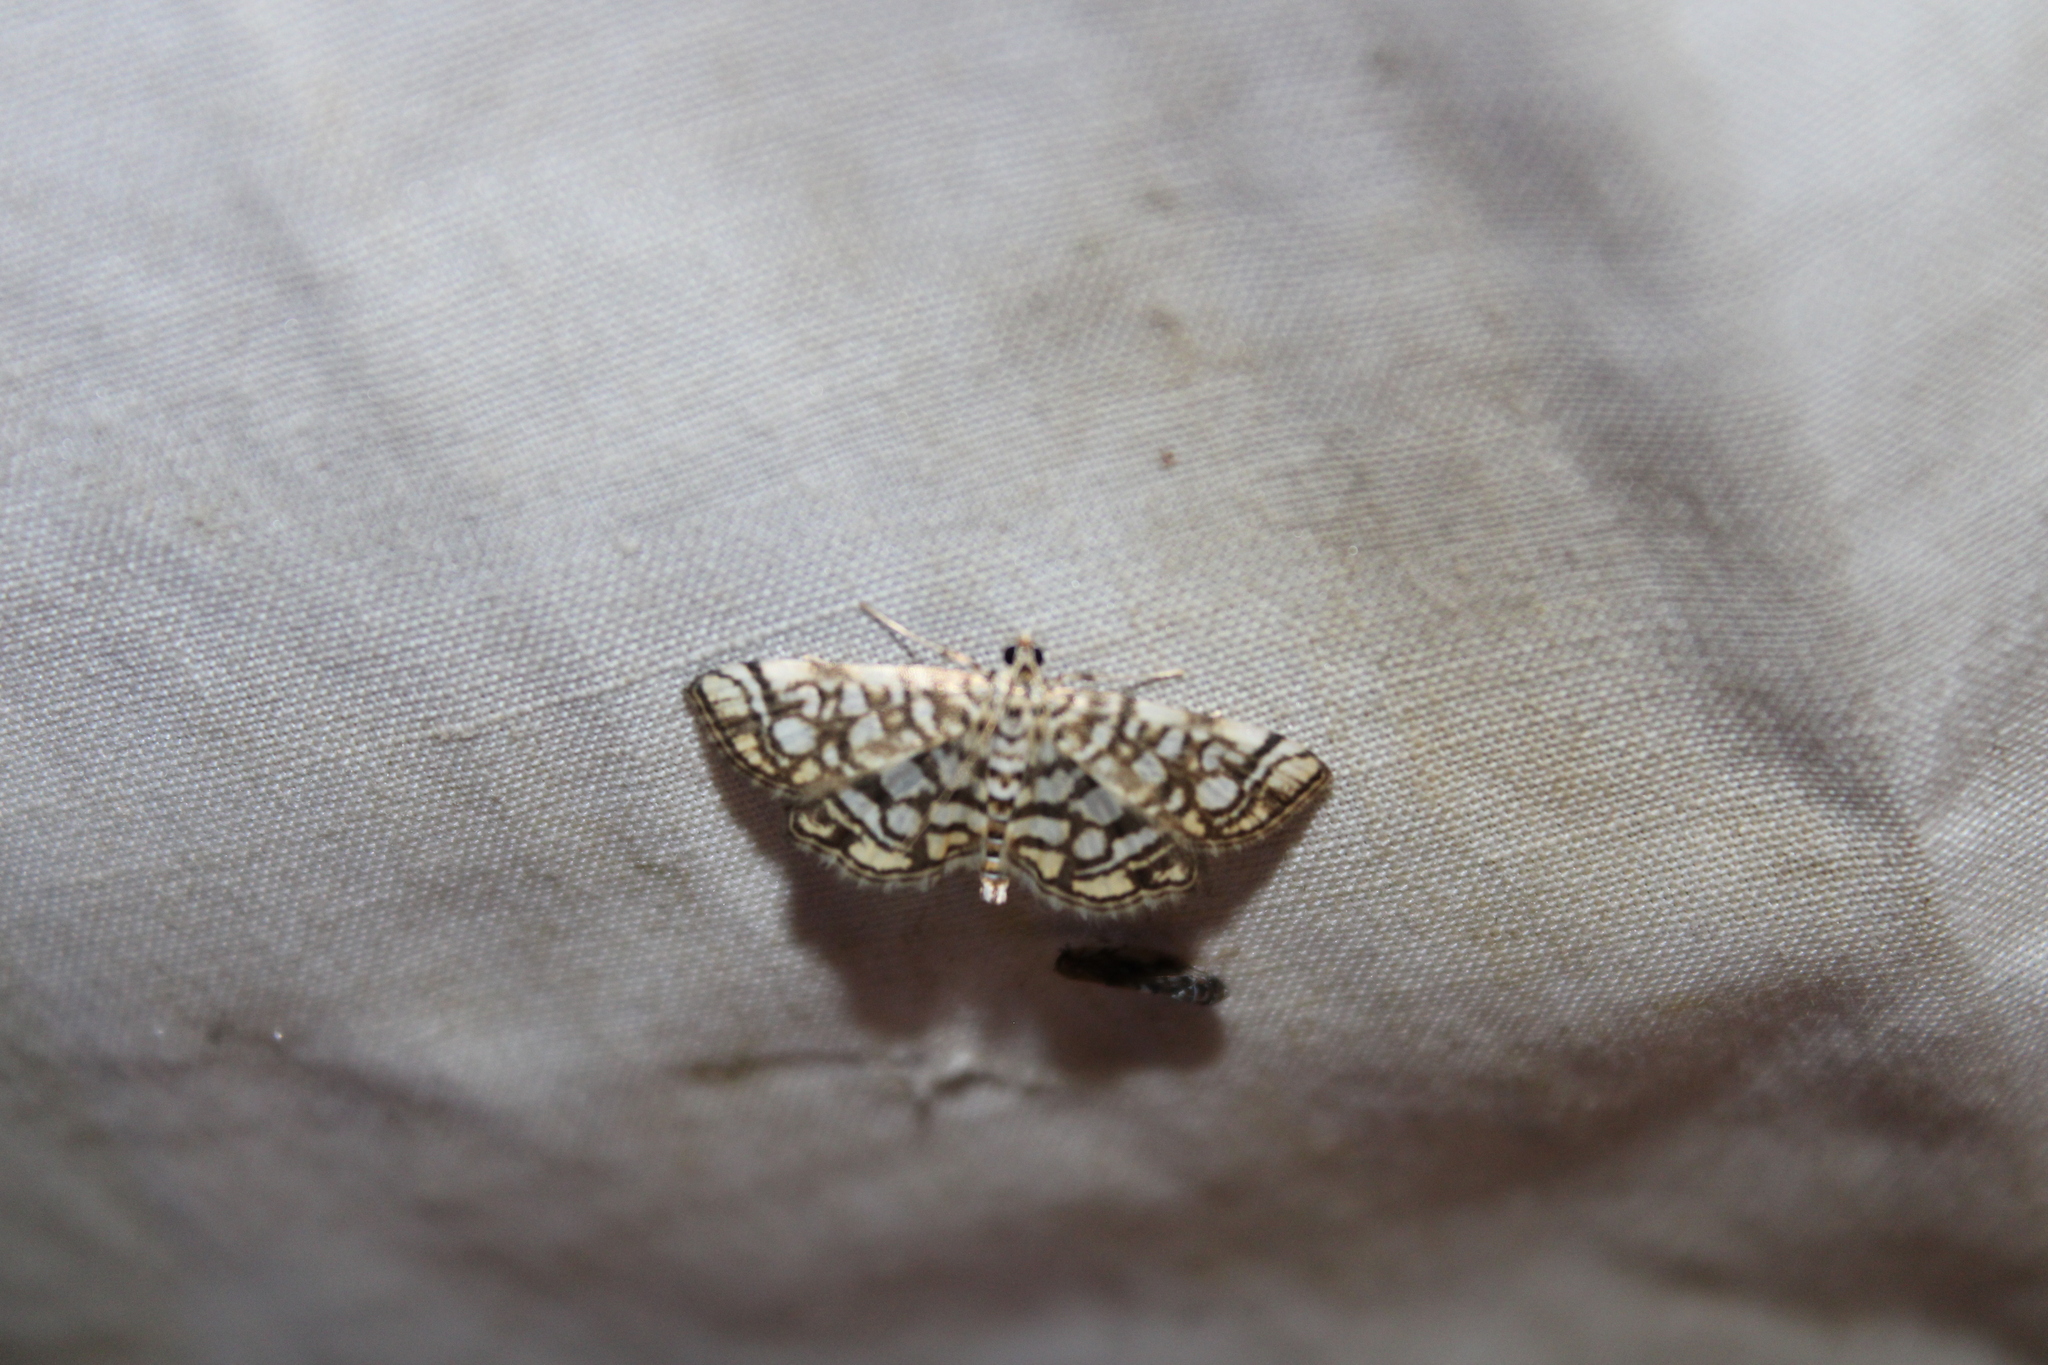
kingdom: Animalia
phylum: Arthropoda
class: Insecta
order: Lepidoptera
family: Crambidae
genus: Lygropia
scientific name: Lygropia rivulalis
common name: Bog lygropia moth
